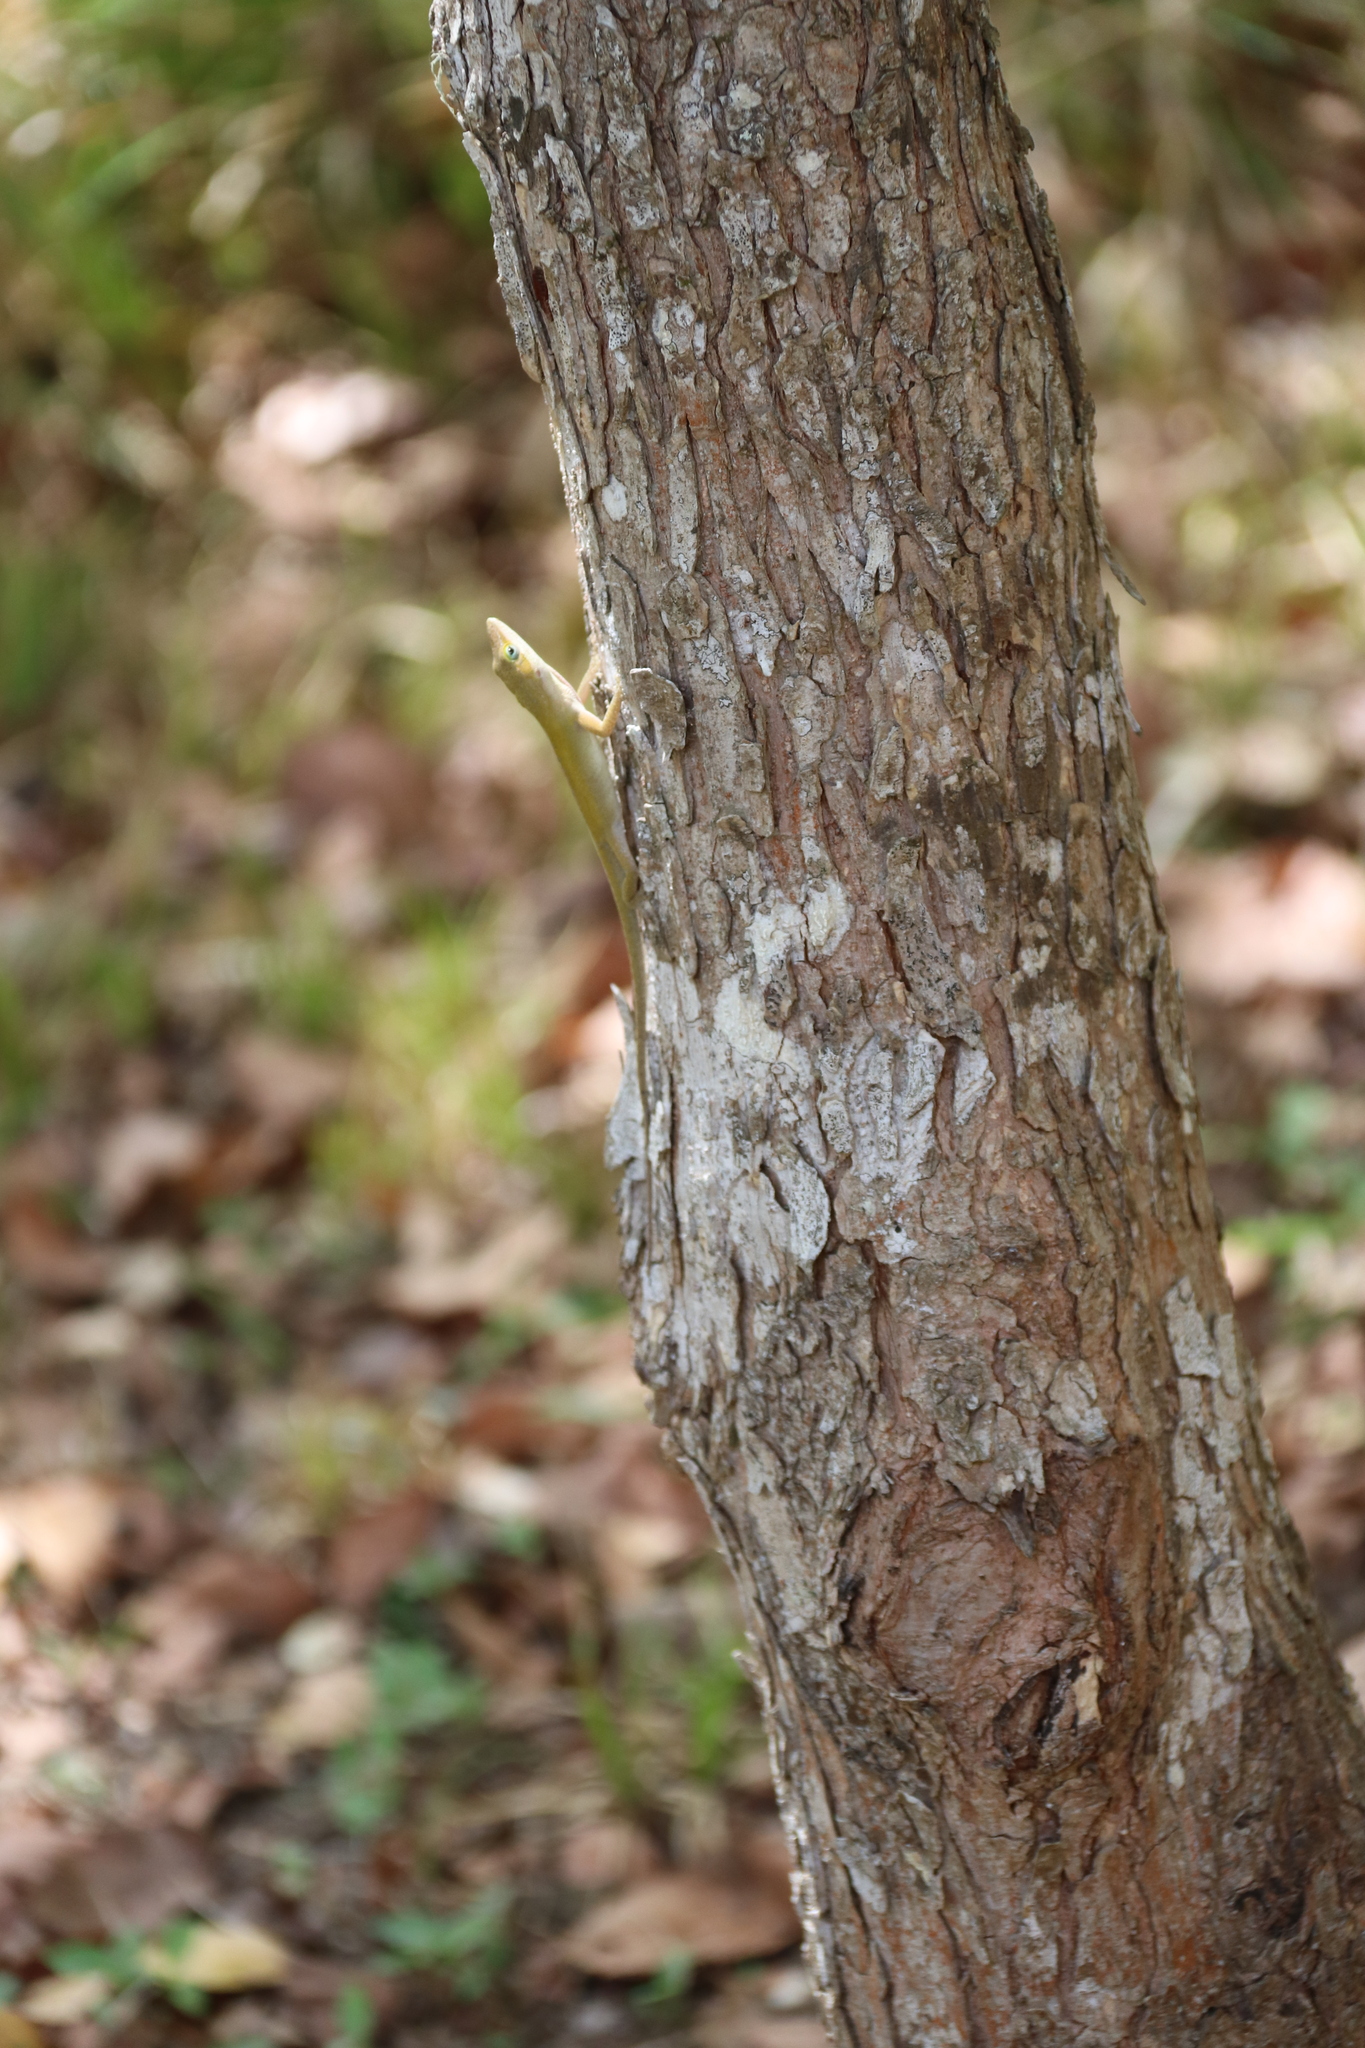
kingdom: Animalia
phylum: Chordata
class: Squamata
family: Dactyloidae
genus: Anolis
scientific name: Anolis carolinensis
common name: Green anole
